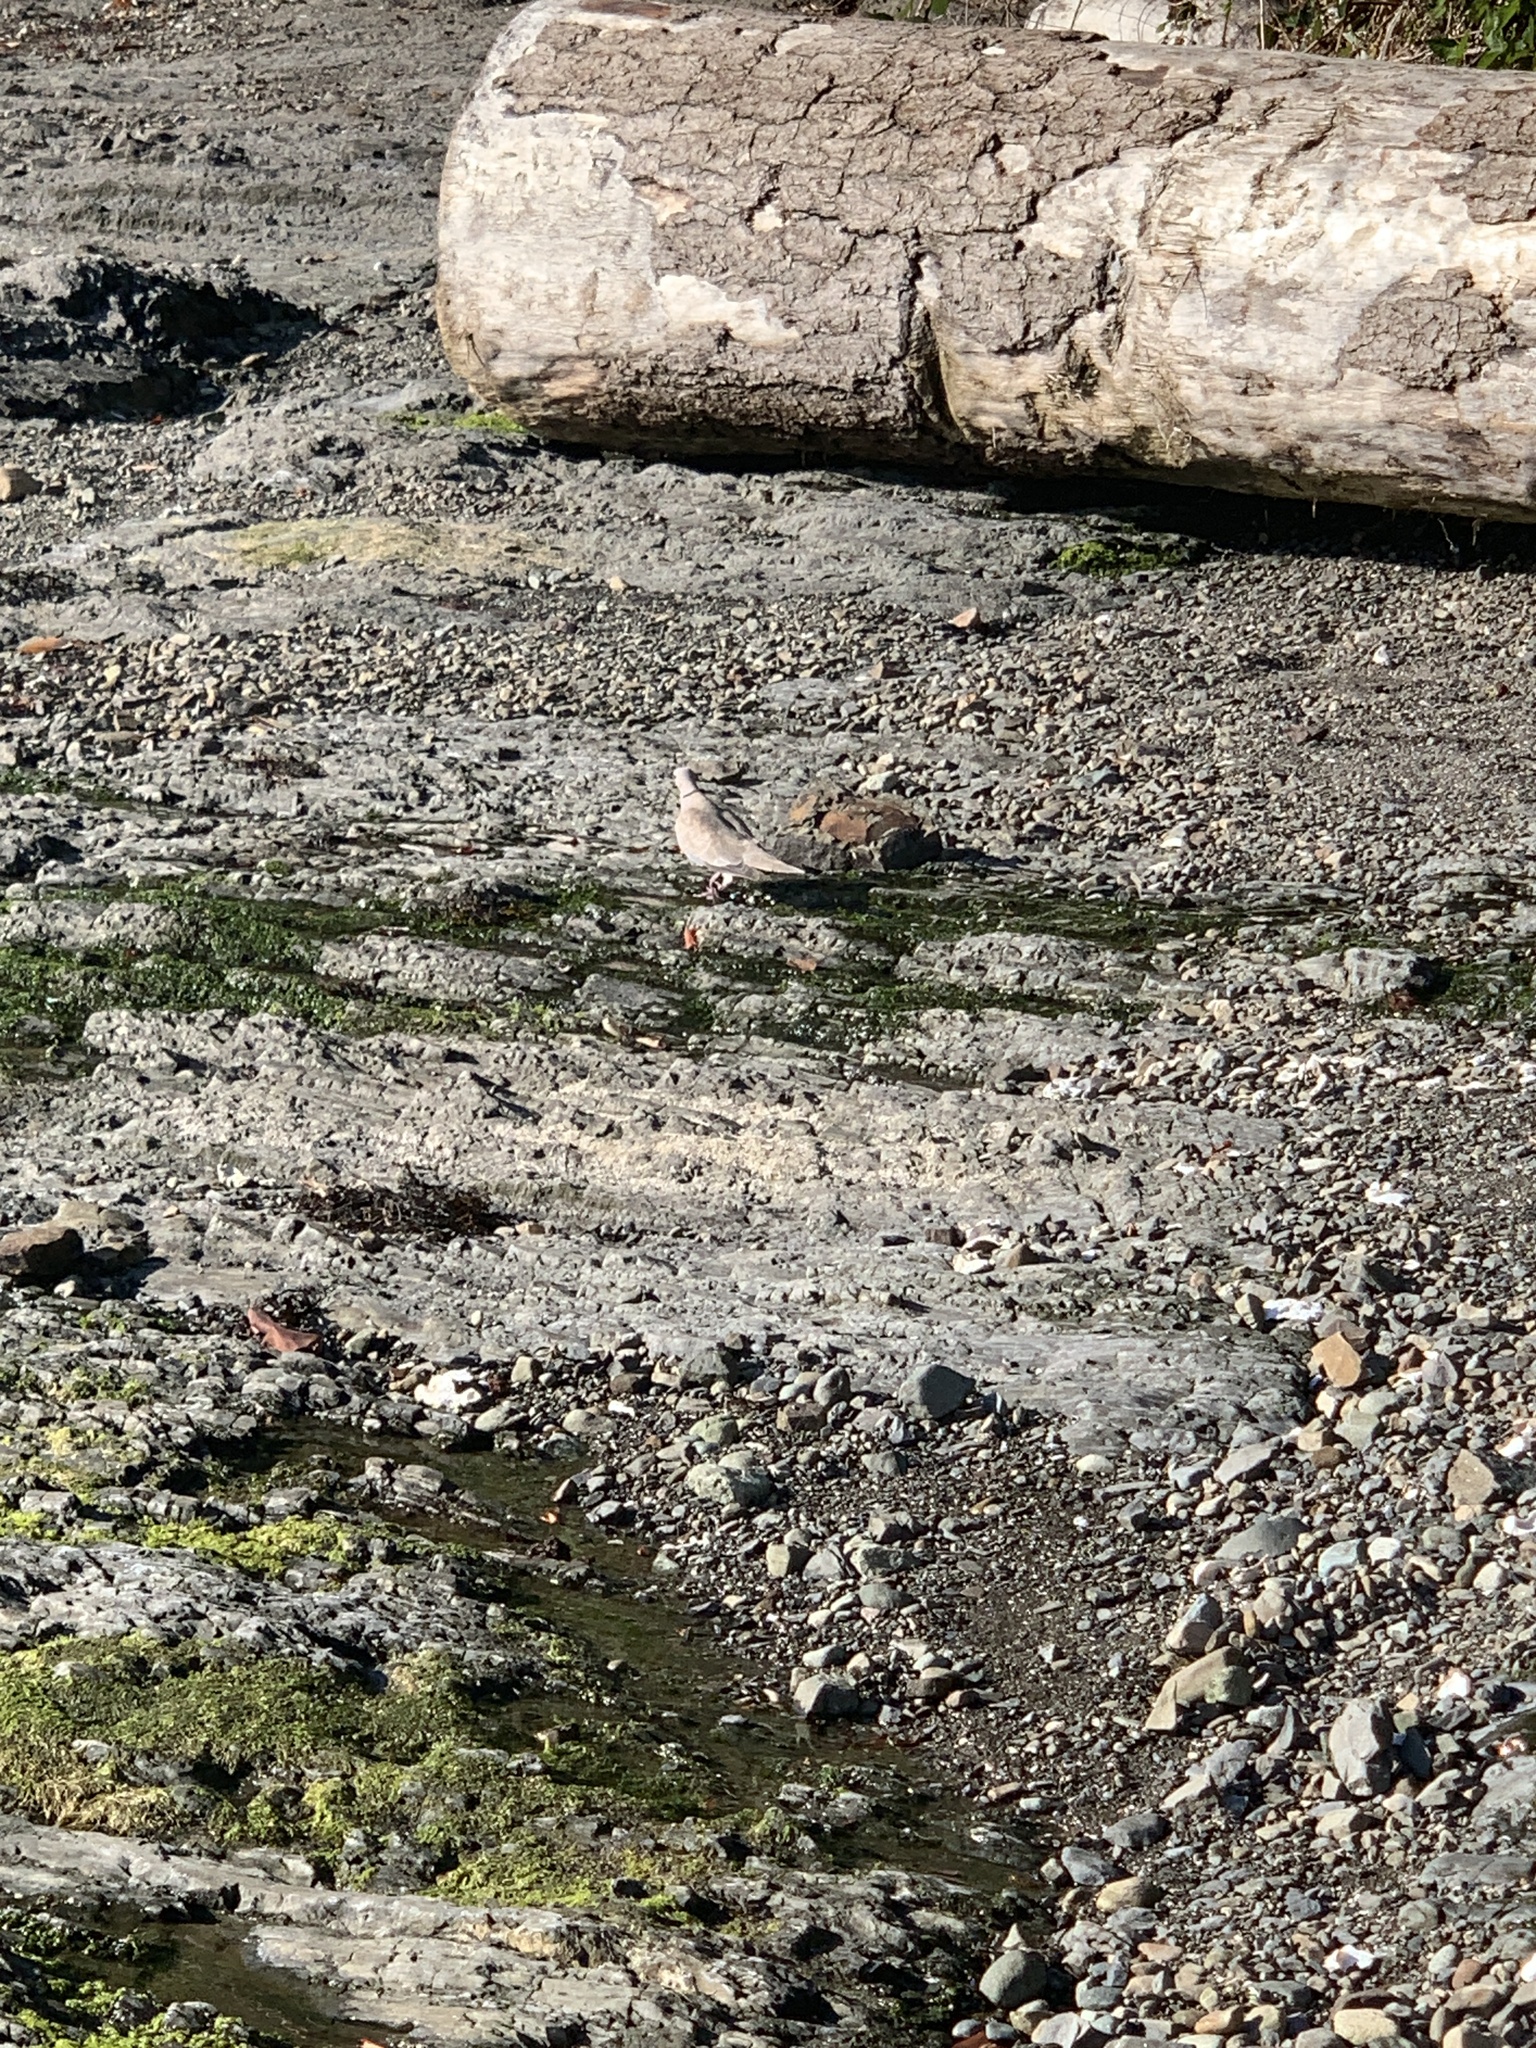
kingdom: Animalia
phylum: Chordata
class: Aves
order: Columbiformes
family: Columbidae
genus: Streptopelia
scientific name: Streptopelia decaocto
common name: Eurasian collared dove
